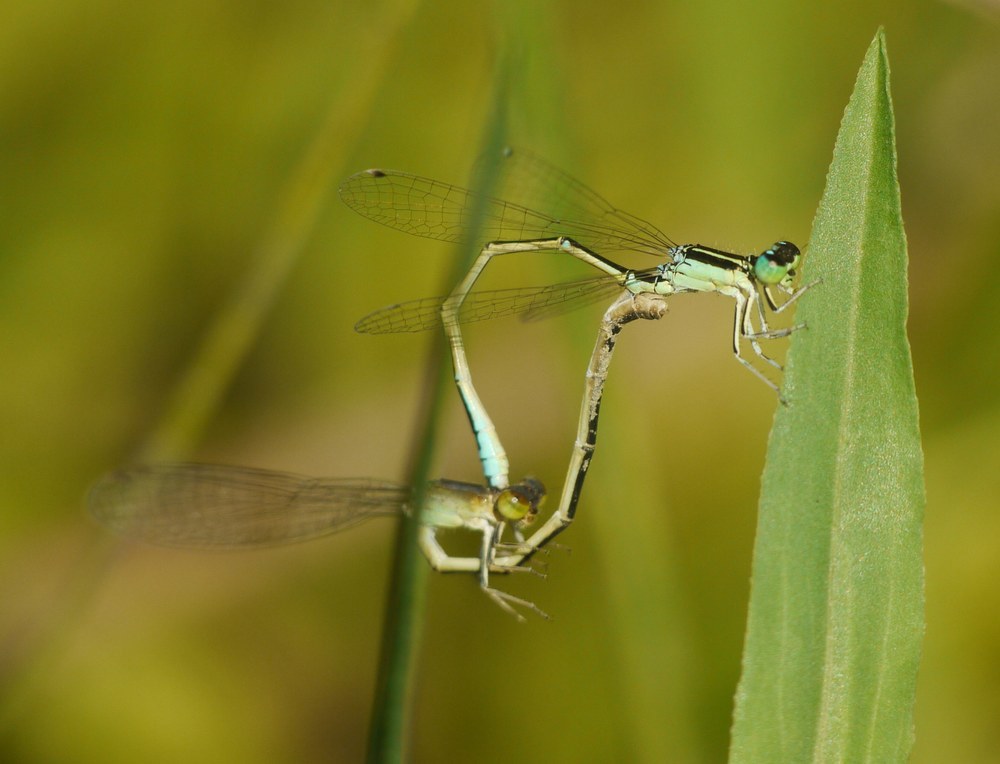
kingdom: Animalia
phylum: Arthropoda
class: Insecta
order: Odonata
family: Coenagrionidae
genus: Ischnura
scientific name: Ischnura pumilio
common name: Scarce blue-tailed damselfly
